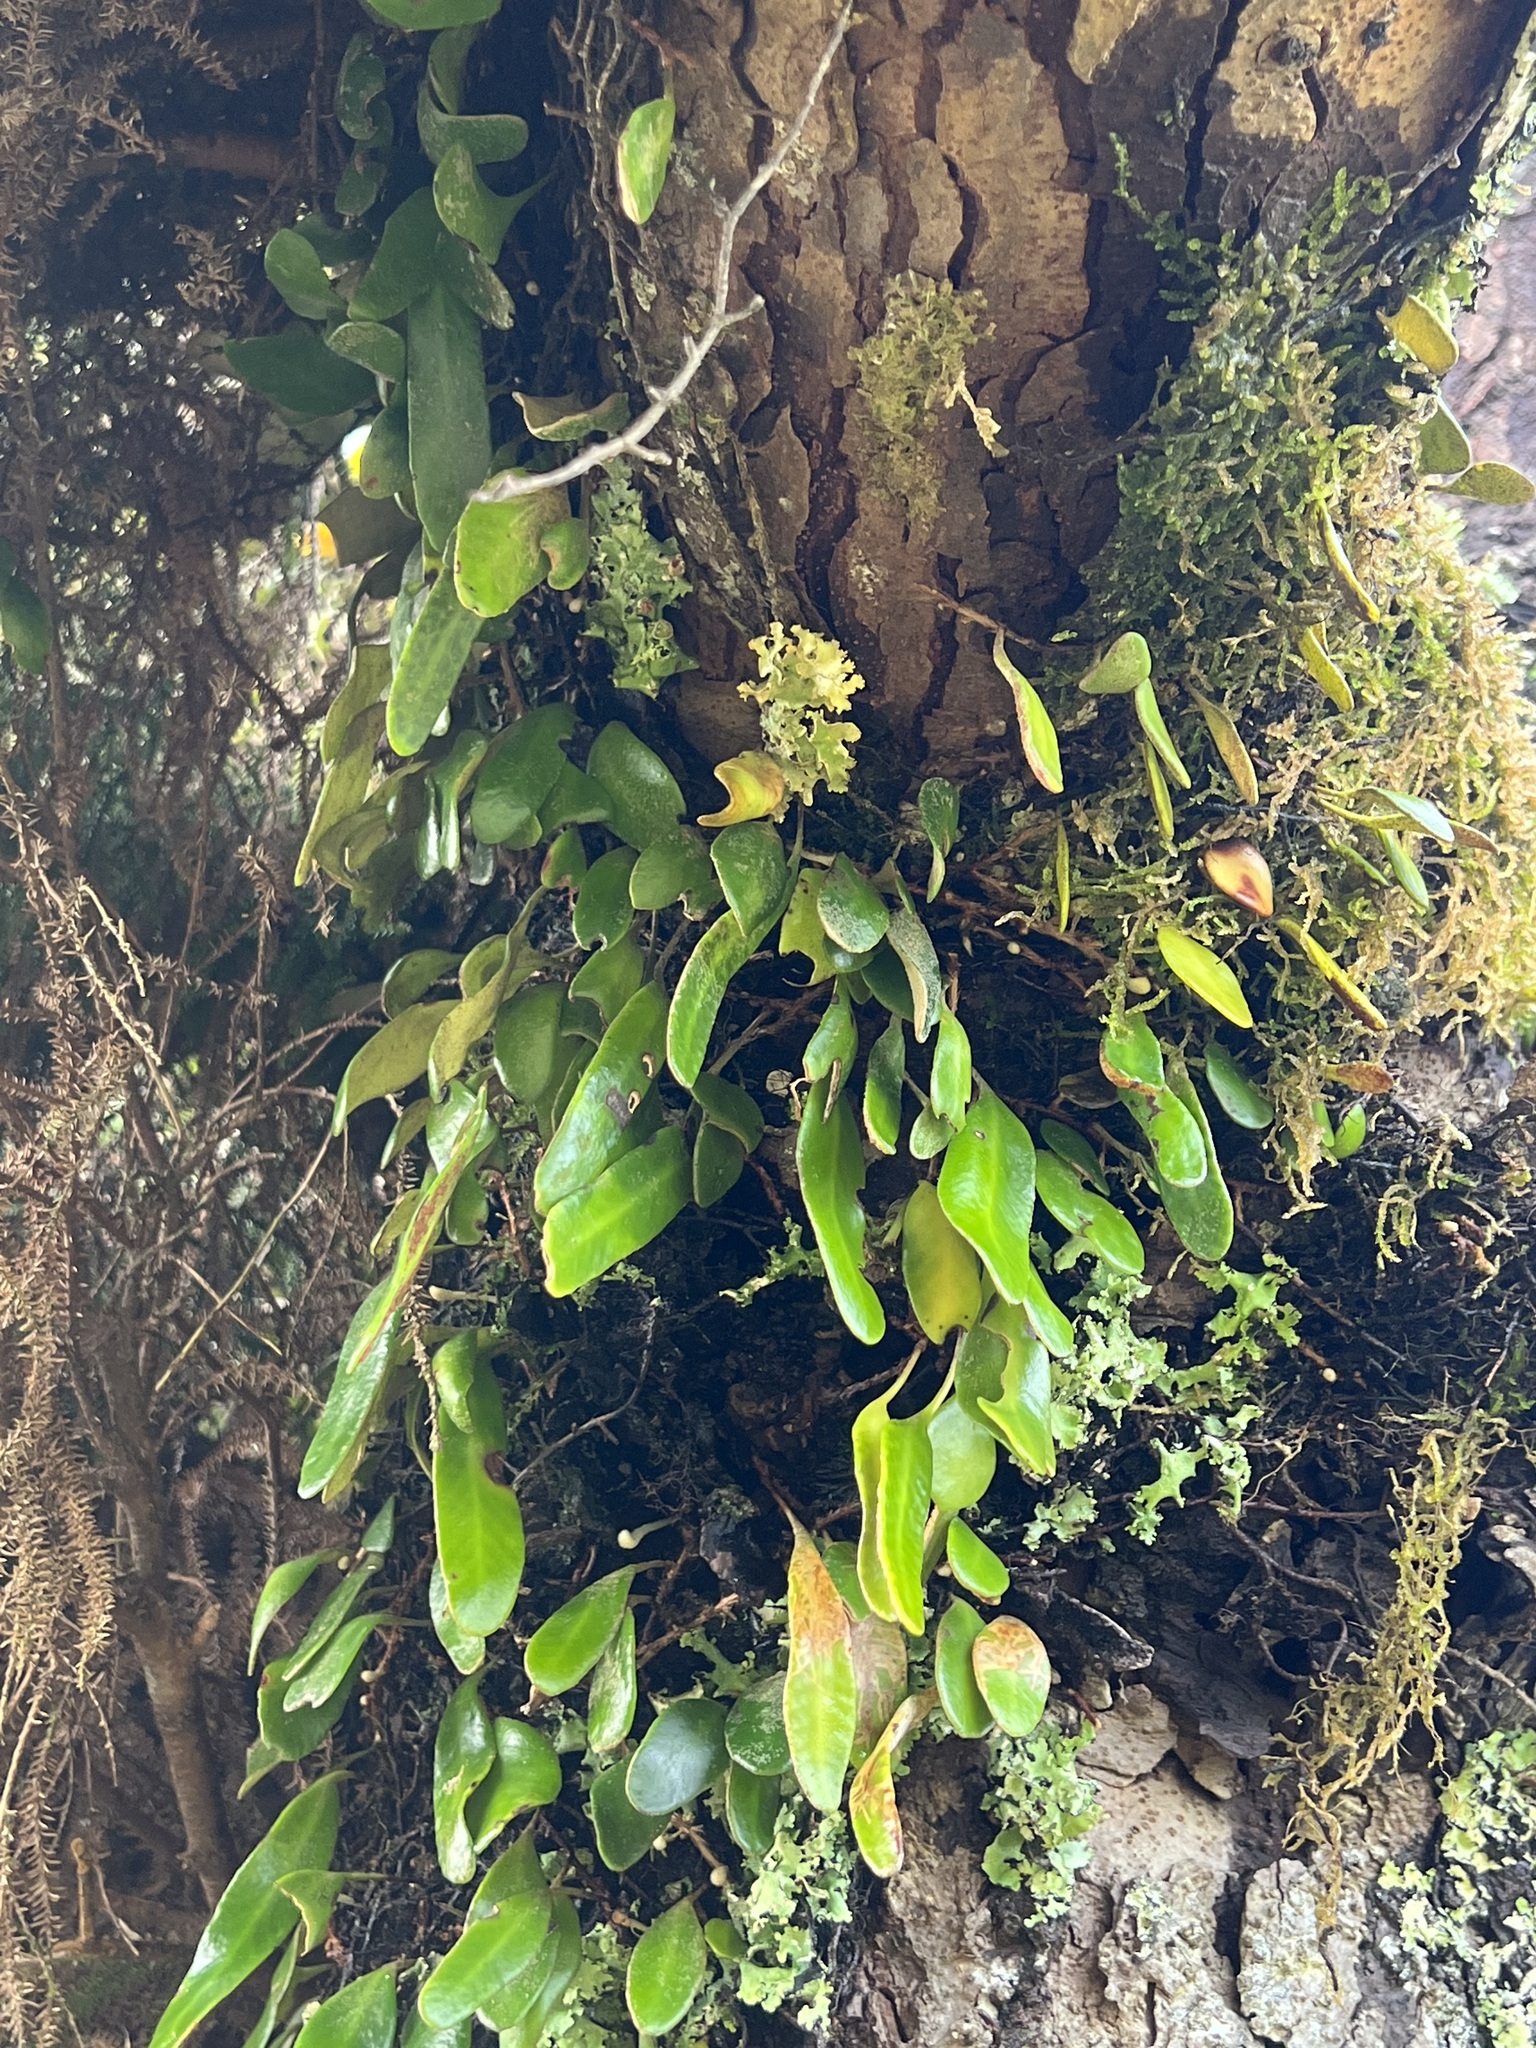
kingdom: Plantae
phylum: Tracheophyta
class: Polypodiopsida
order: Polypodiales
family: Polypodiaceae
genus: Pyrrosia
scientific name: Pyrrosia eleagnifolia
